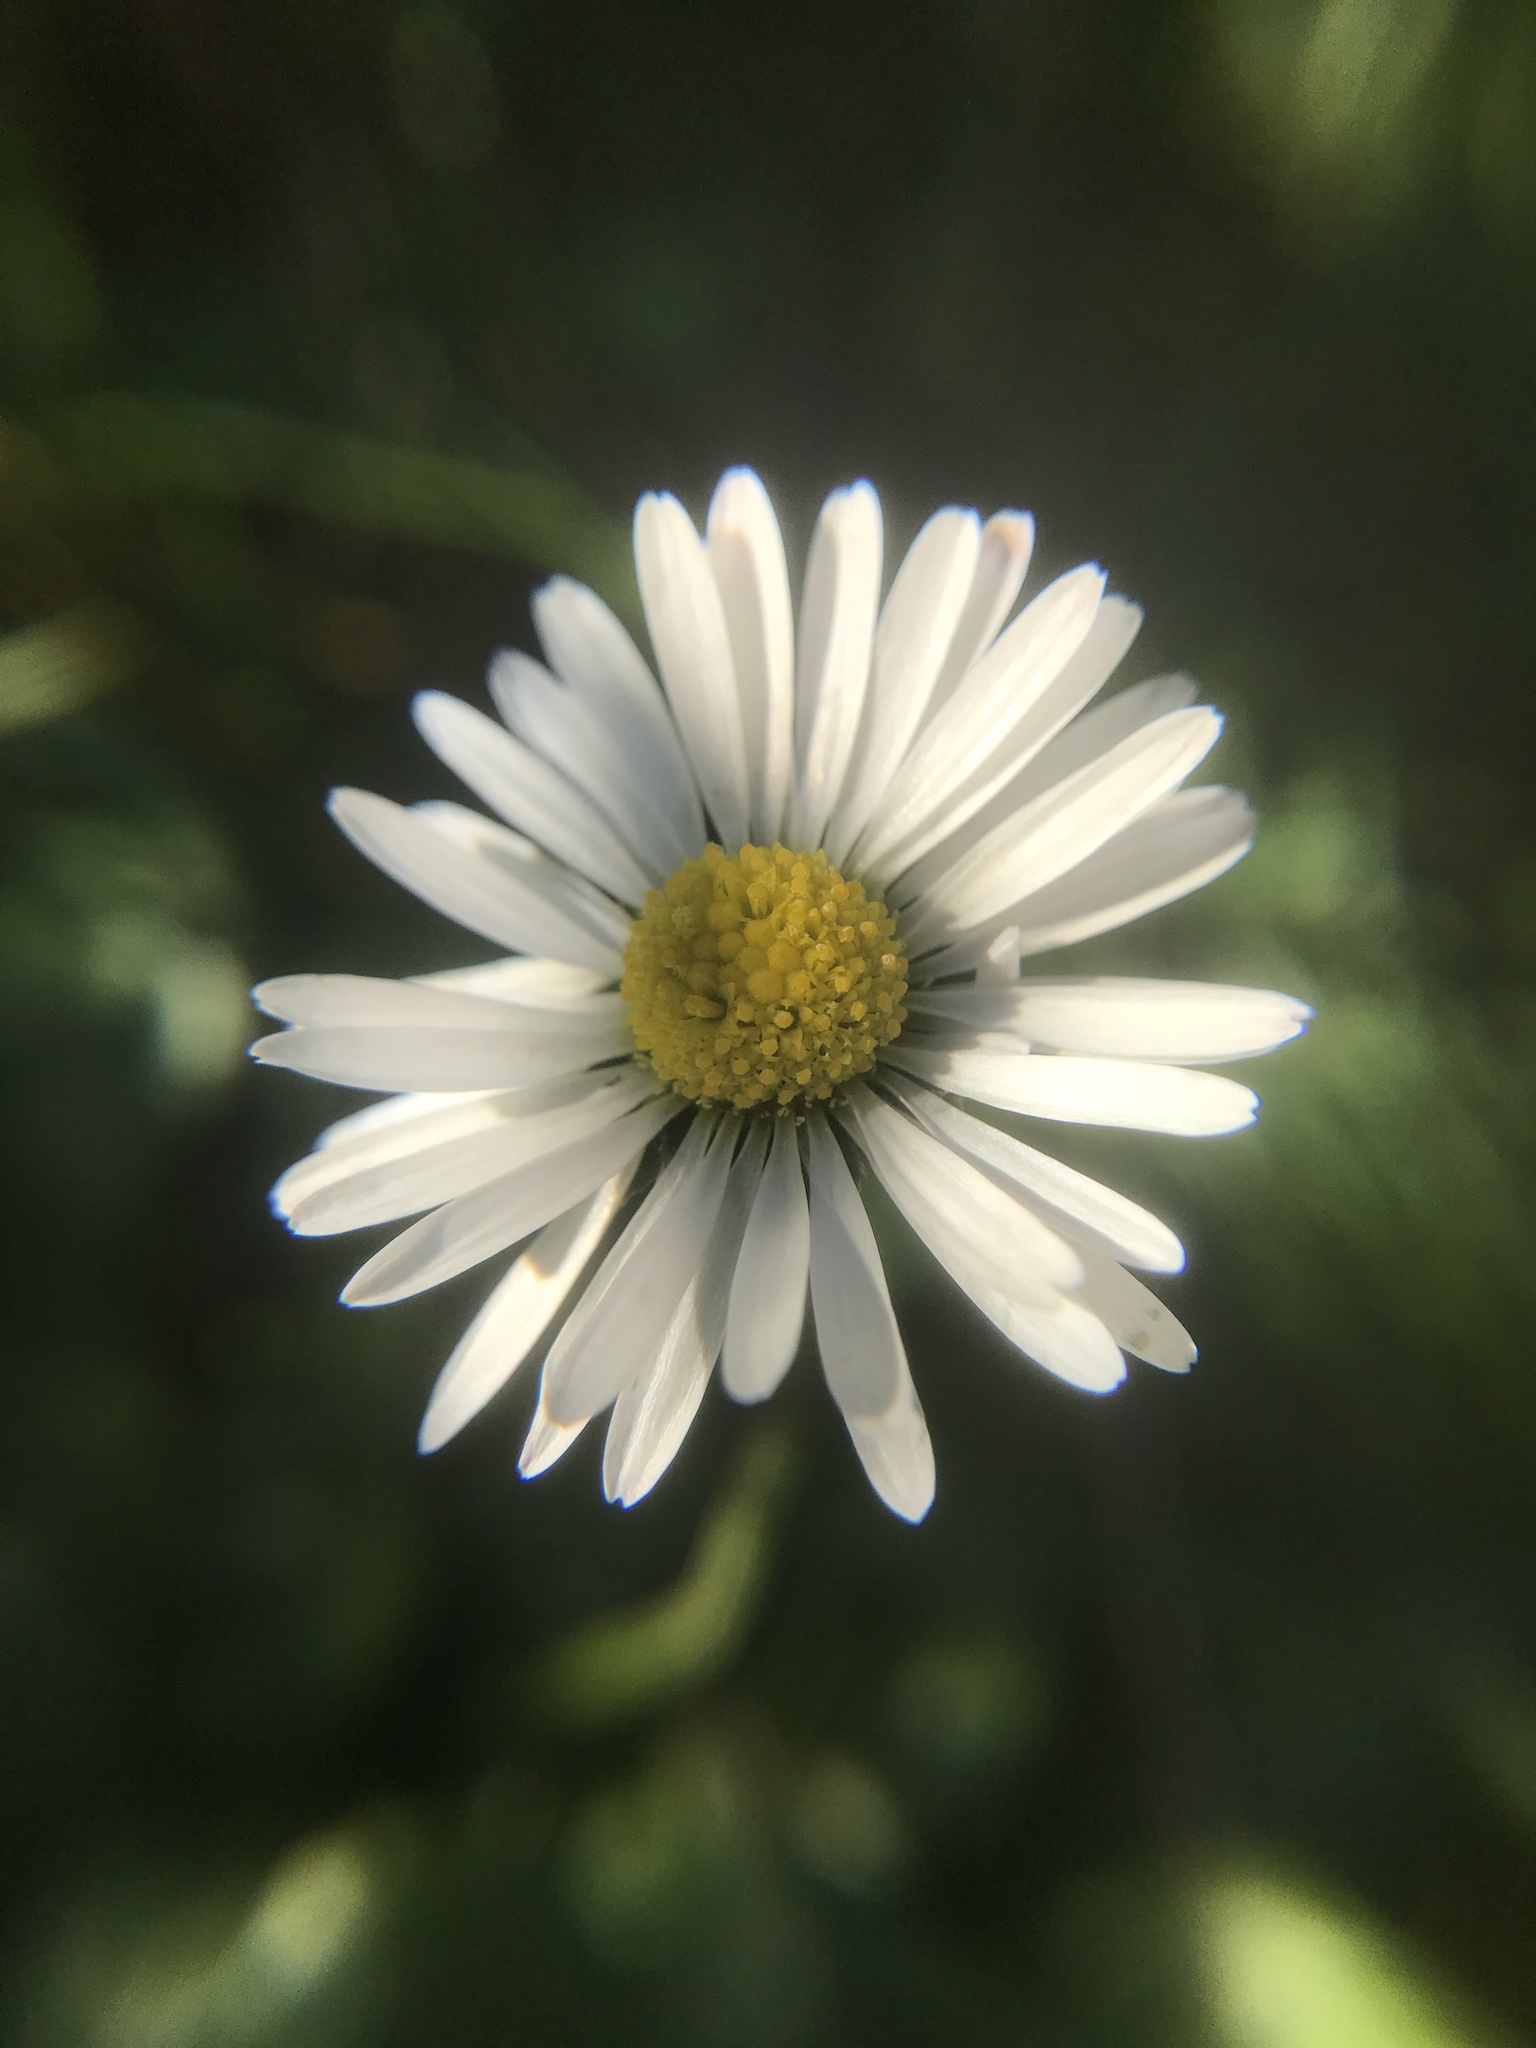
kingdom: Plantae
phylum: Tracheophyta
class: Magnoliopsida
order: Asterales
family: Asteraceae
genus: Bellis
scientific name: Bellis perennis
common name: Lawndaisy
